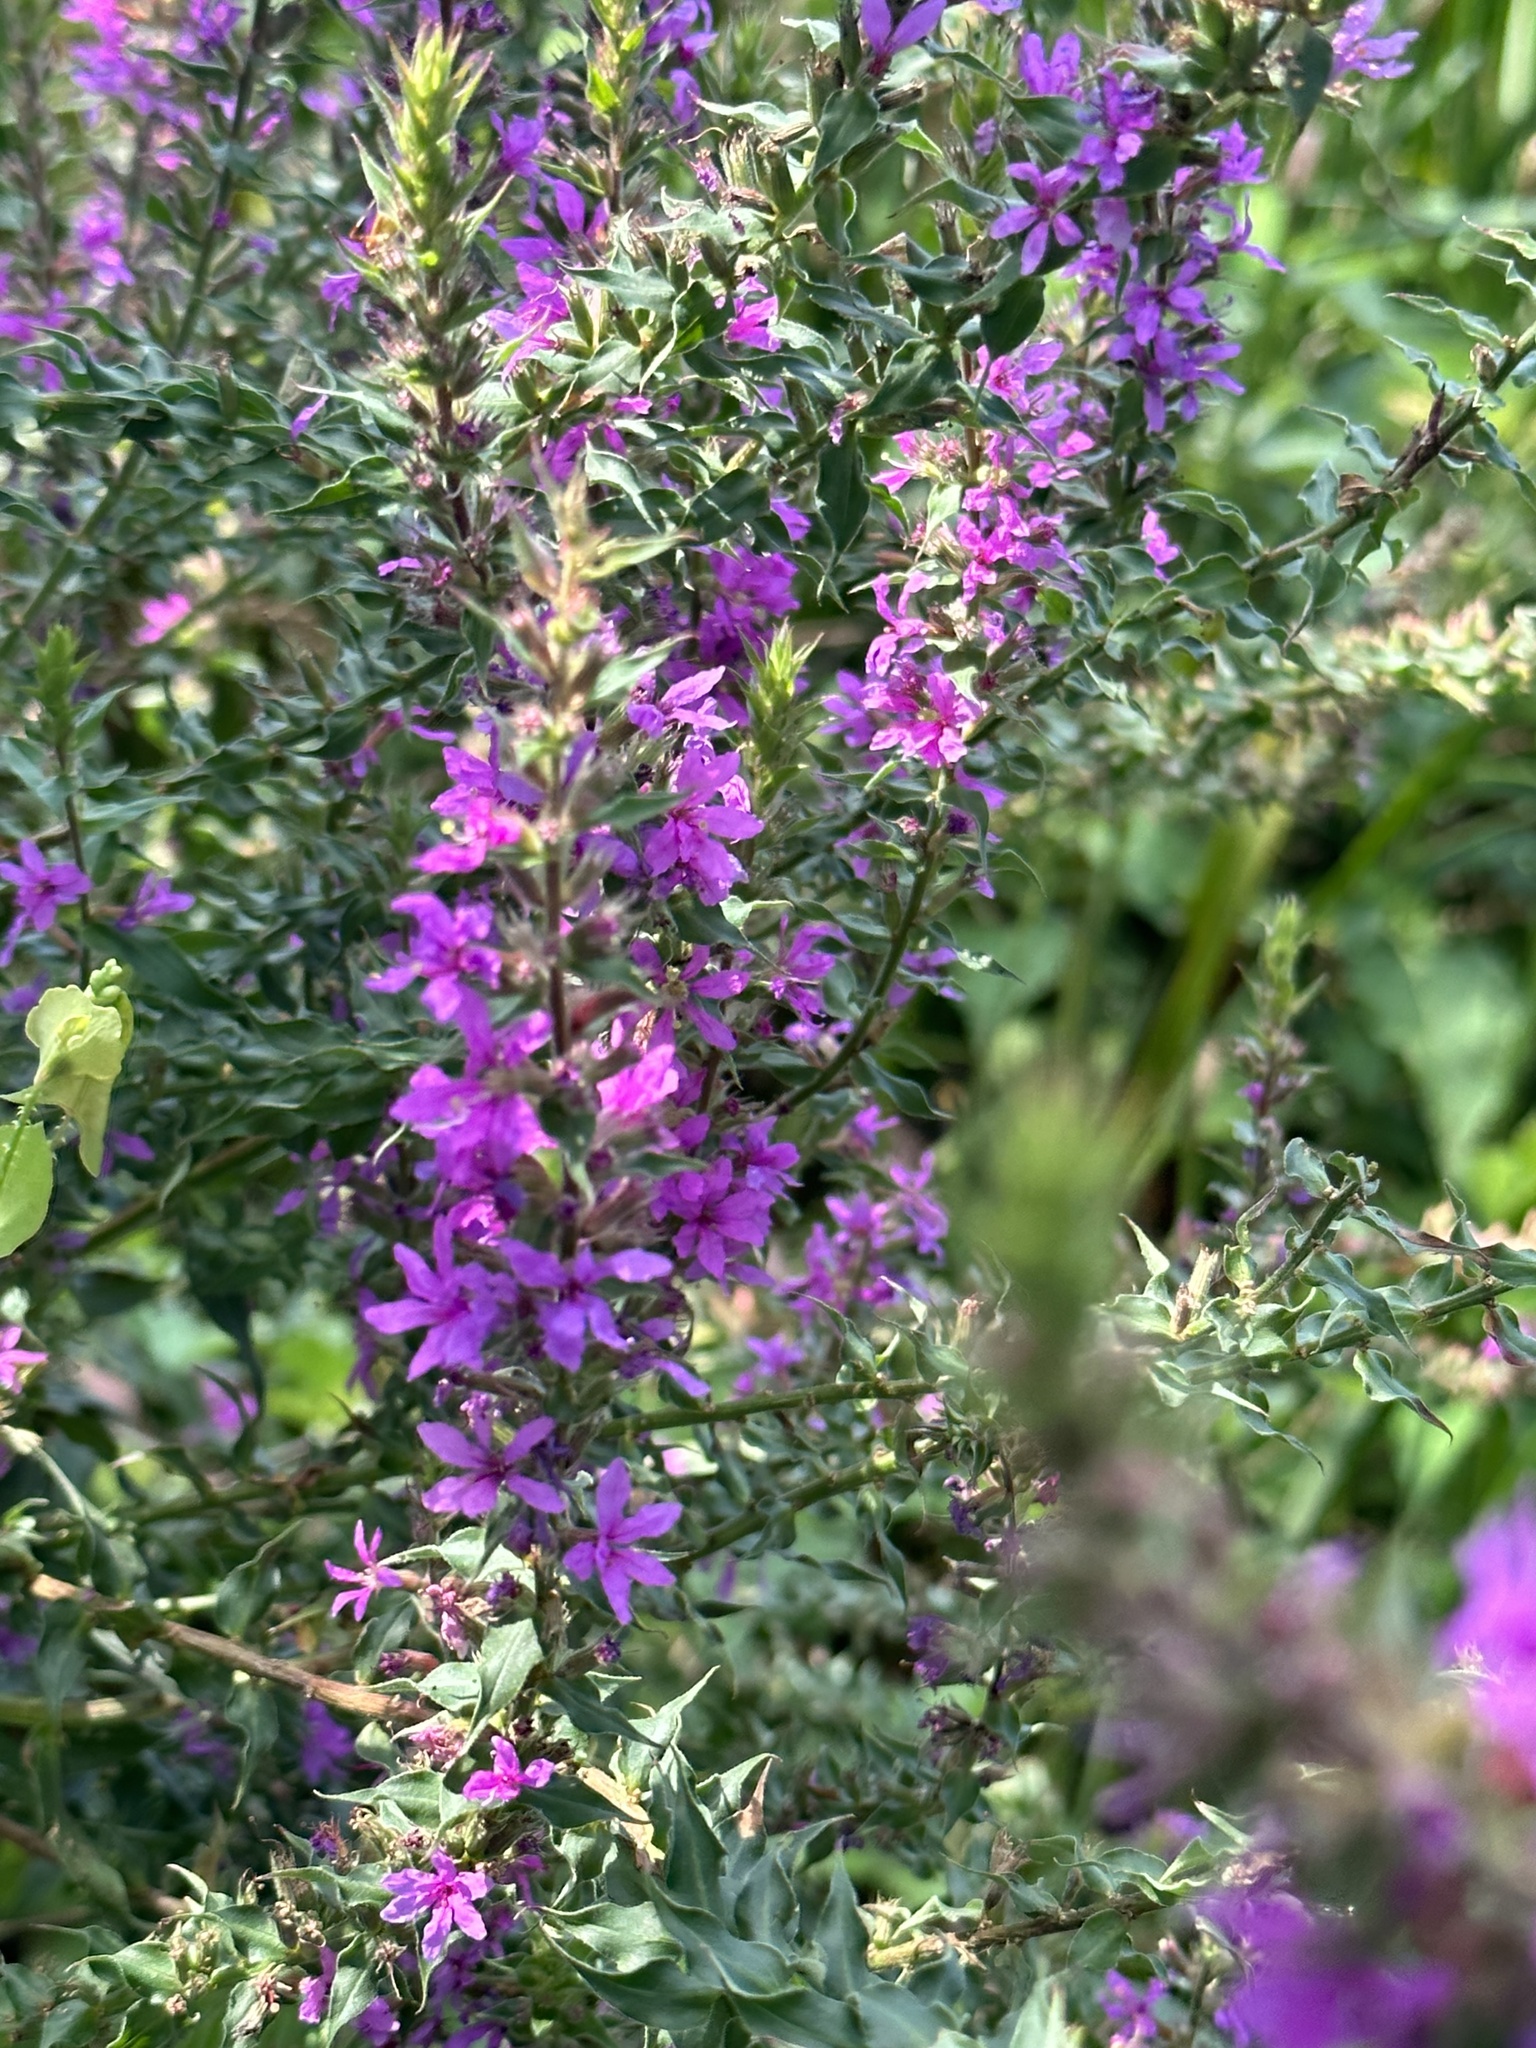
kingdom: Plantae
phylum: Tracheophyta
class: Magnoliopsida
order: Myrtales
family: Lythraceae
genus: Lythrum
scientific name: Lythrum salicaria
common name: Purple loosestrife
